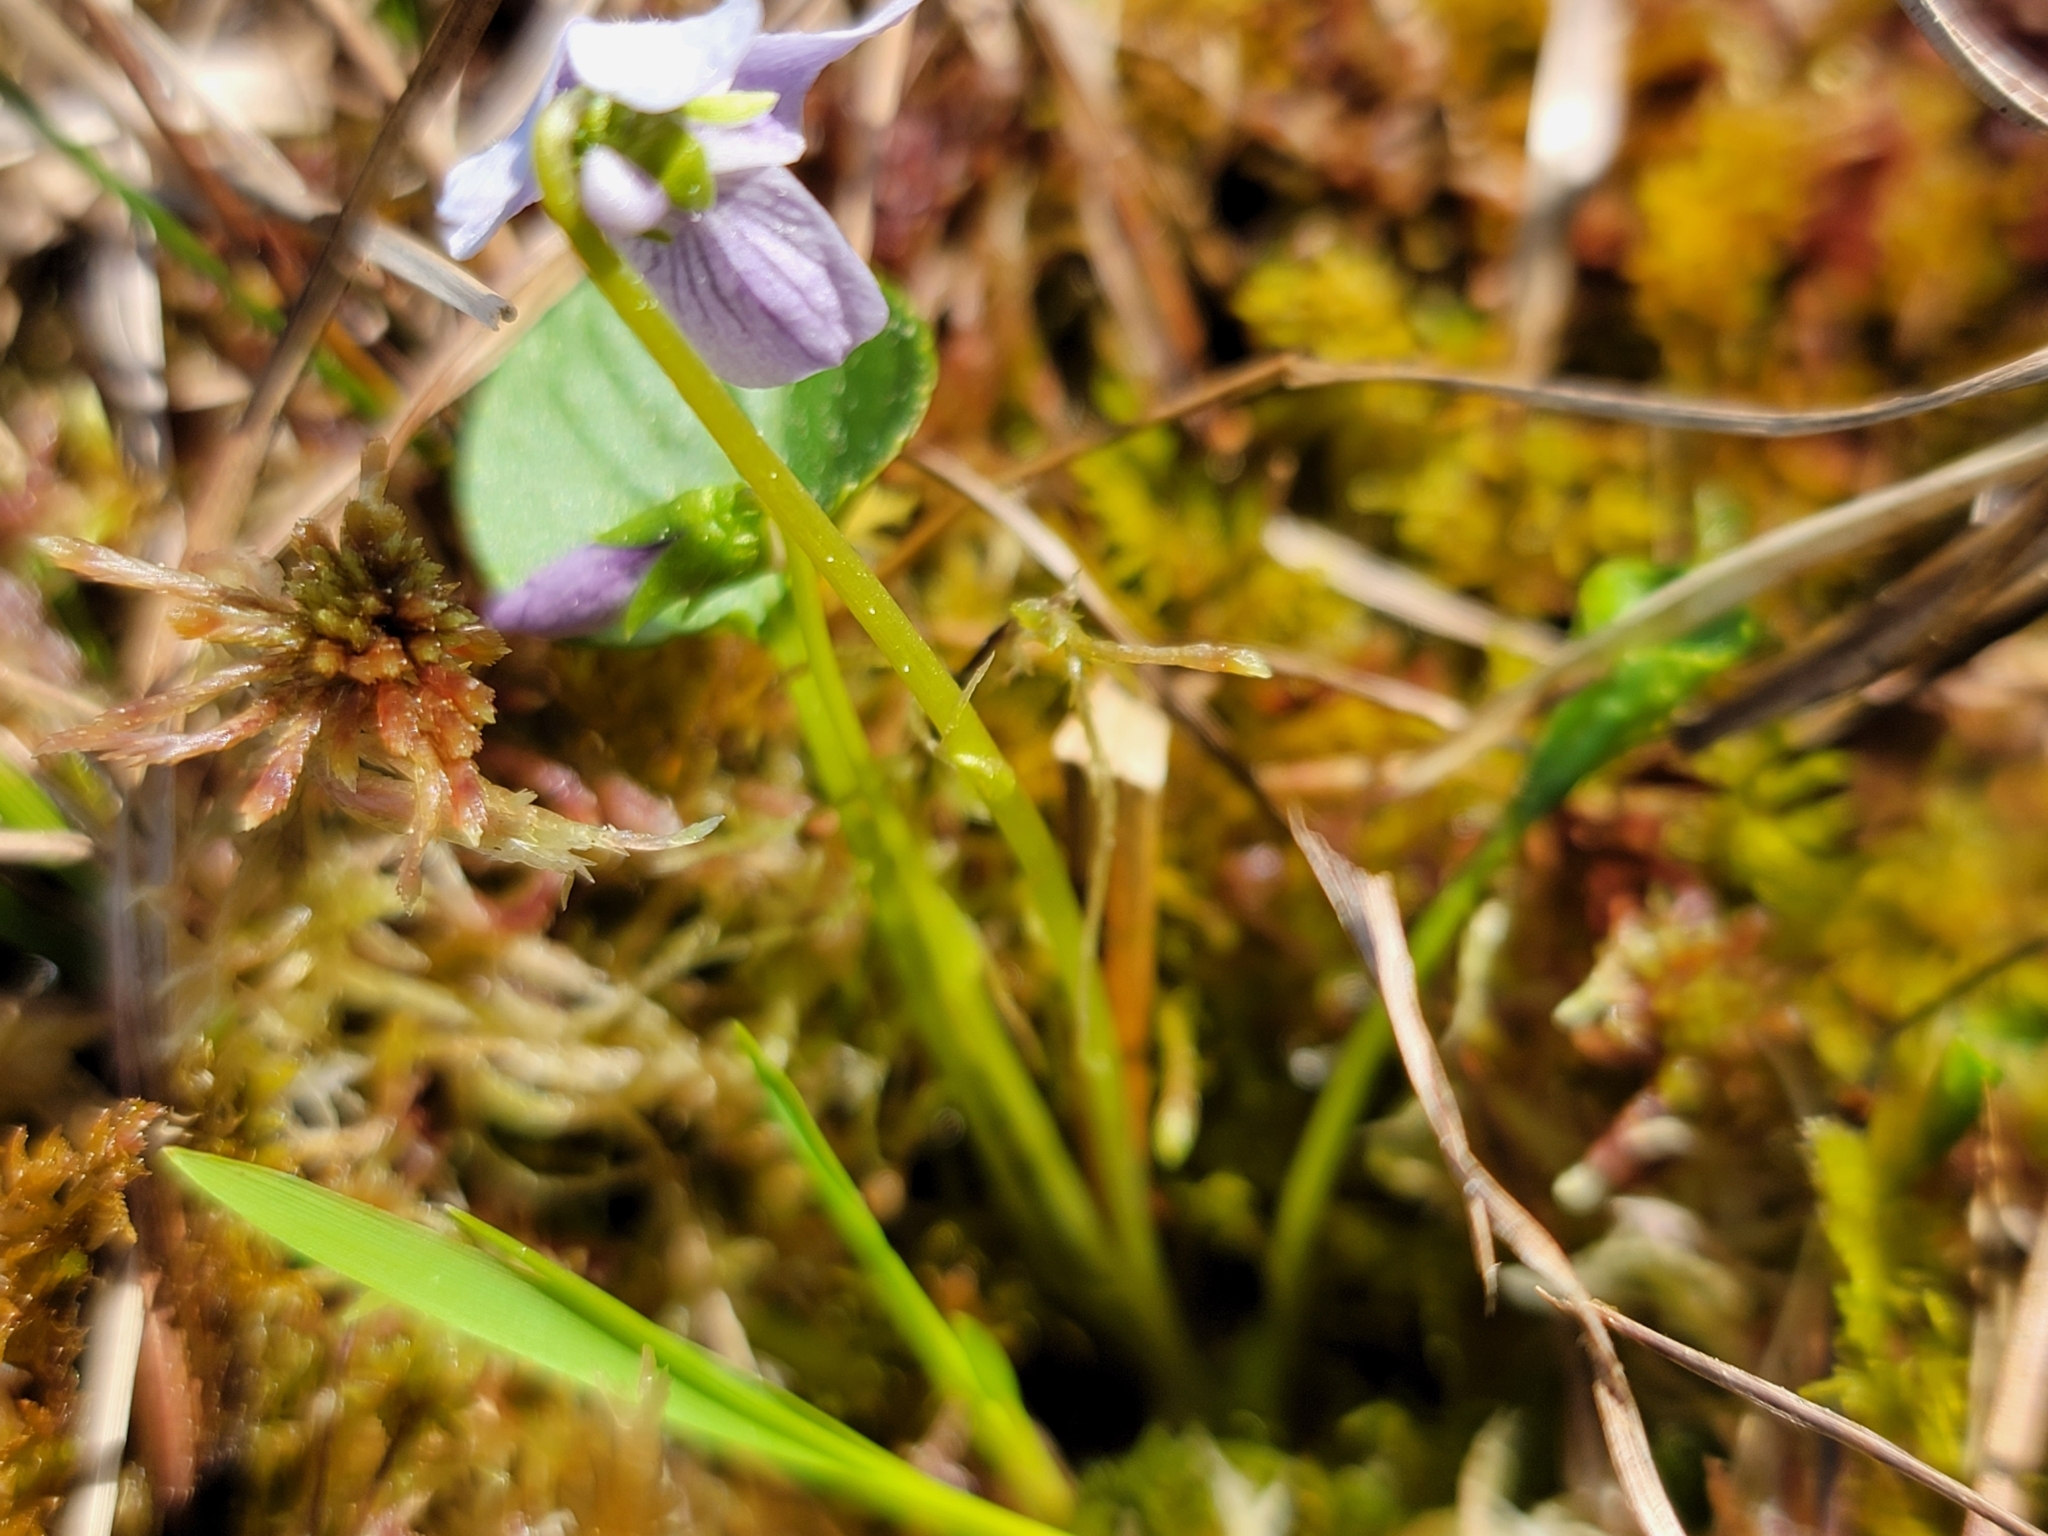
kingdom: Plantae
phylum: Tracheophyta
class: Magnoliopsida
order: Malpighiales
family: Violaceae
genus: Viola
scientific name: Viola palustris
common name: Marsh violet
